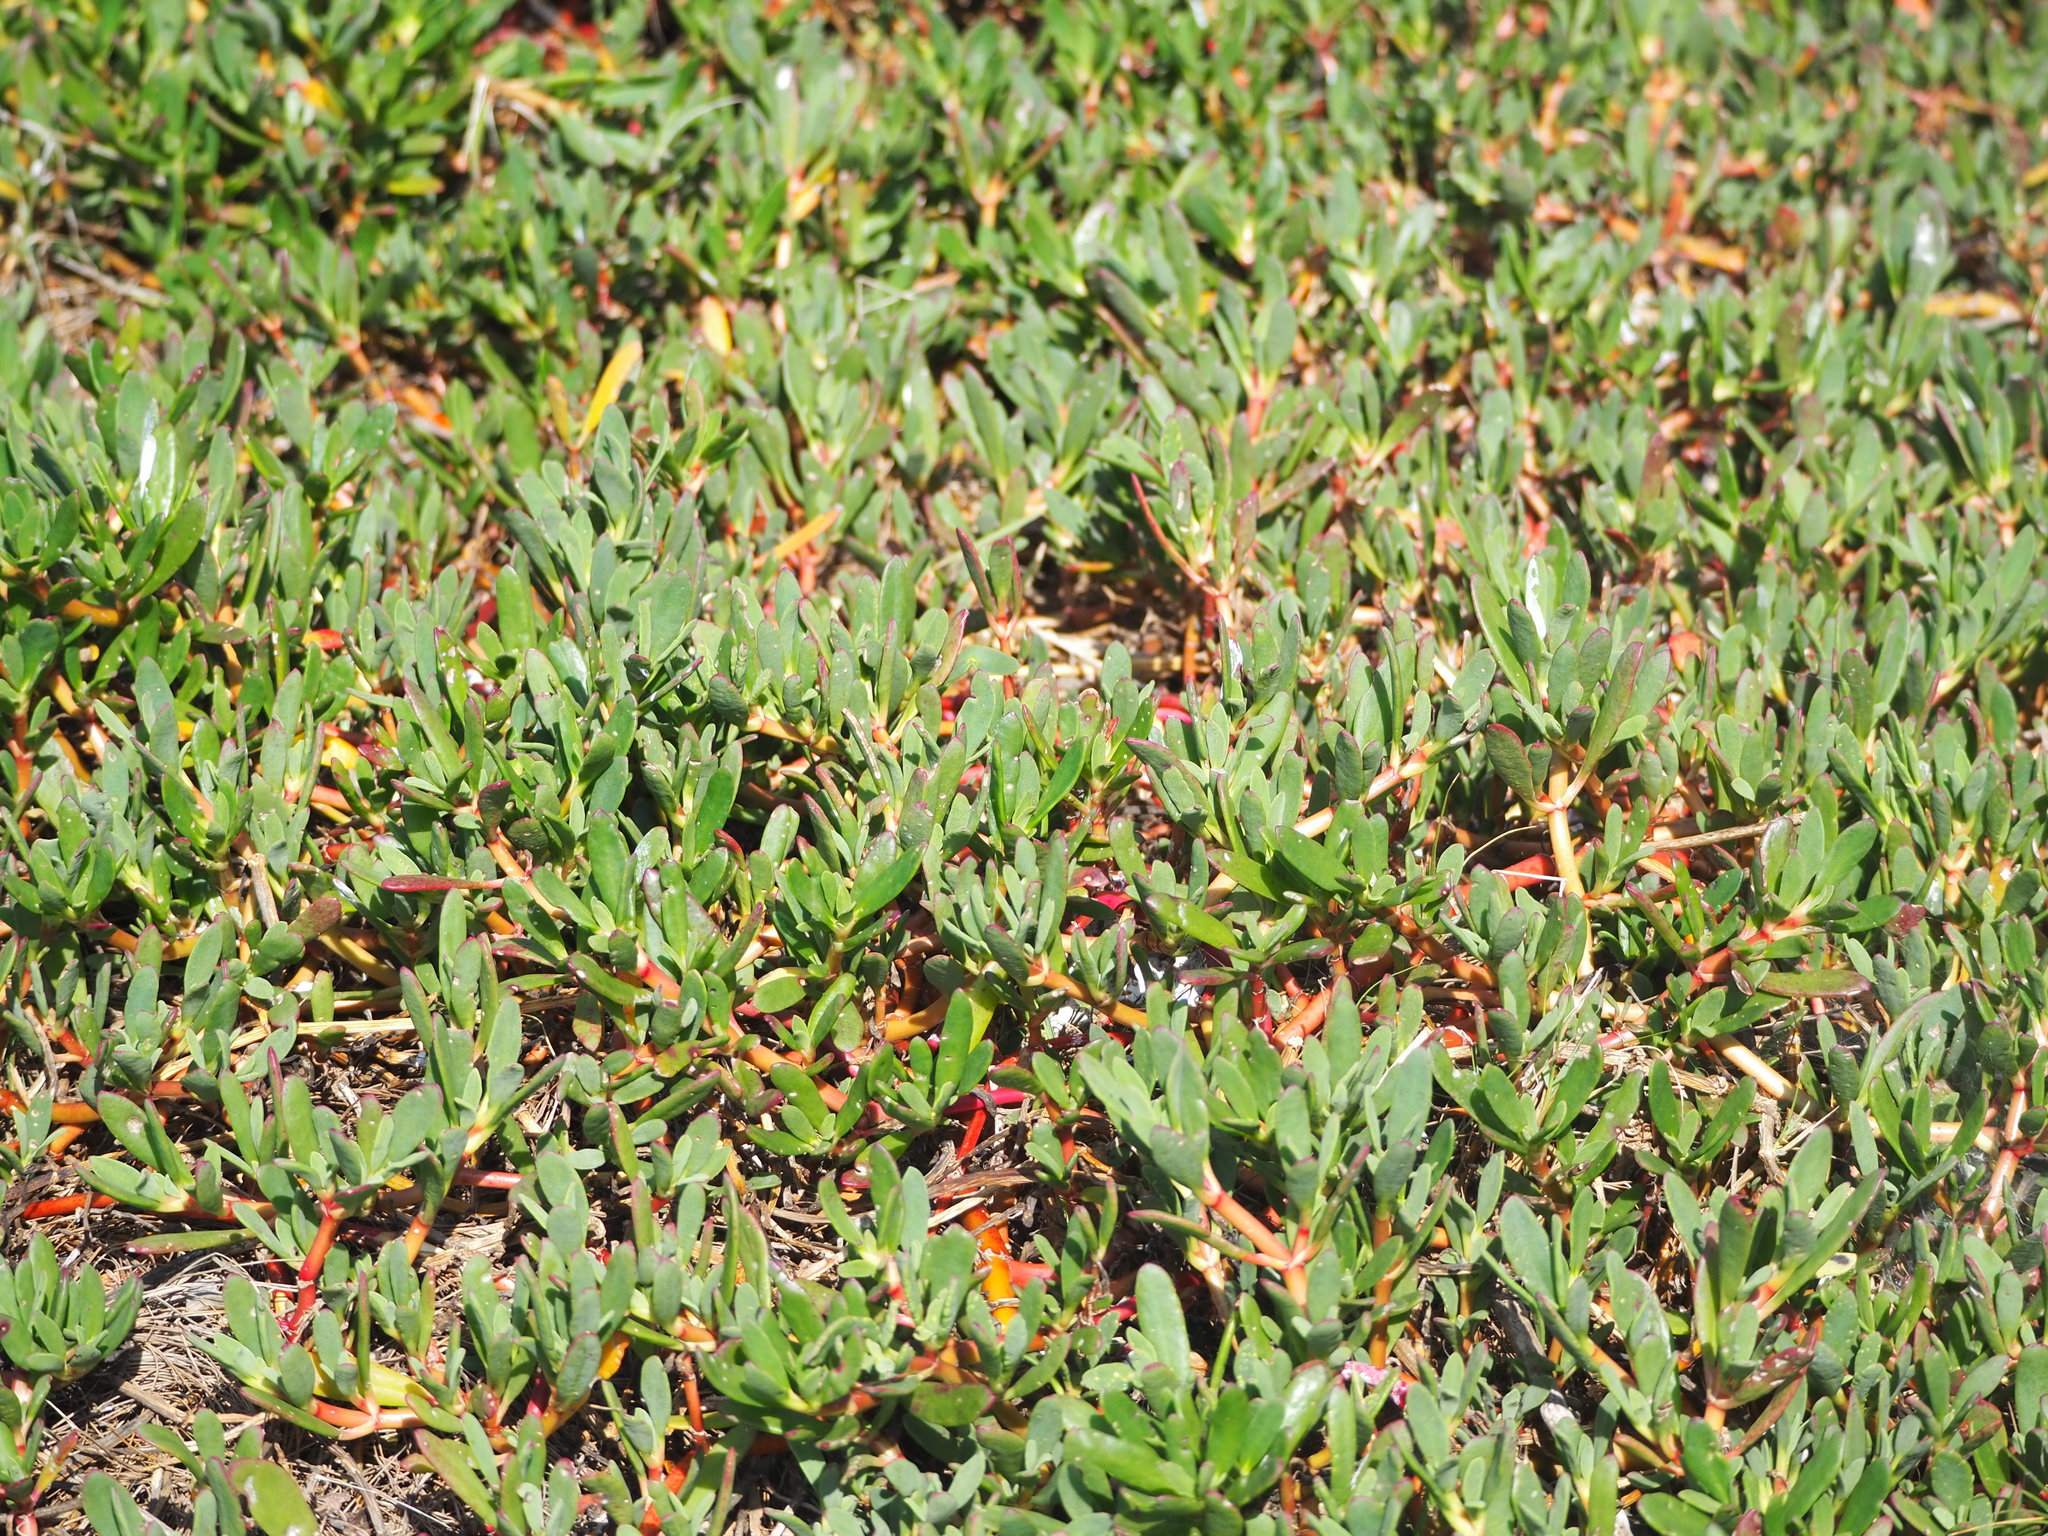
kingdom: Plantae
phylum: Tracheophyta
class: Magnoliopsida
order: Caryophyllales
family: Aizoaceae
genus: Sesuvium
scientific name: Sesuvium portulacastrum
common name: Sea-purslane
